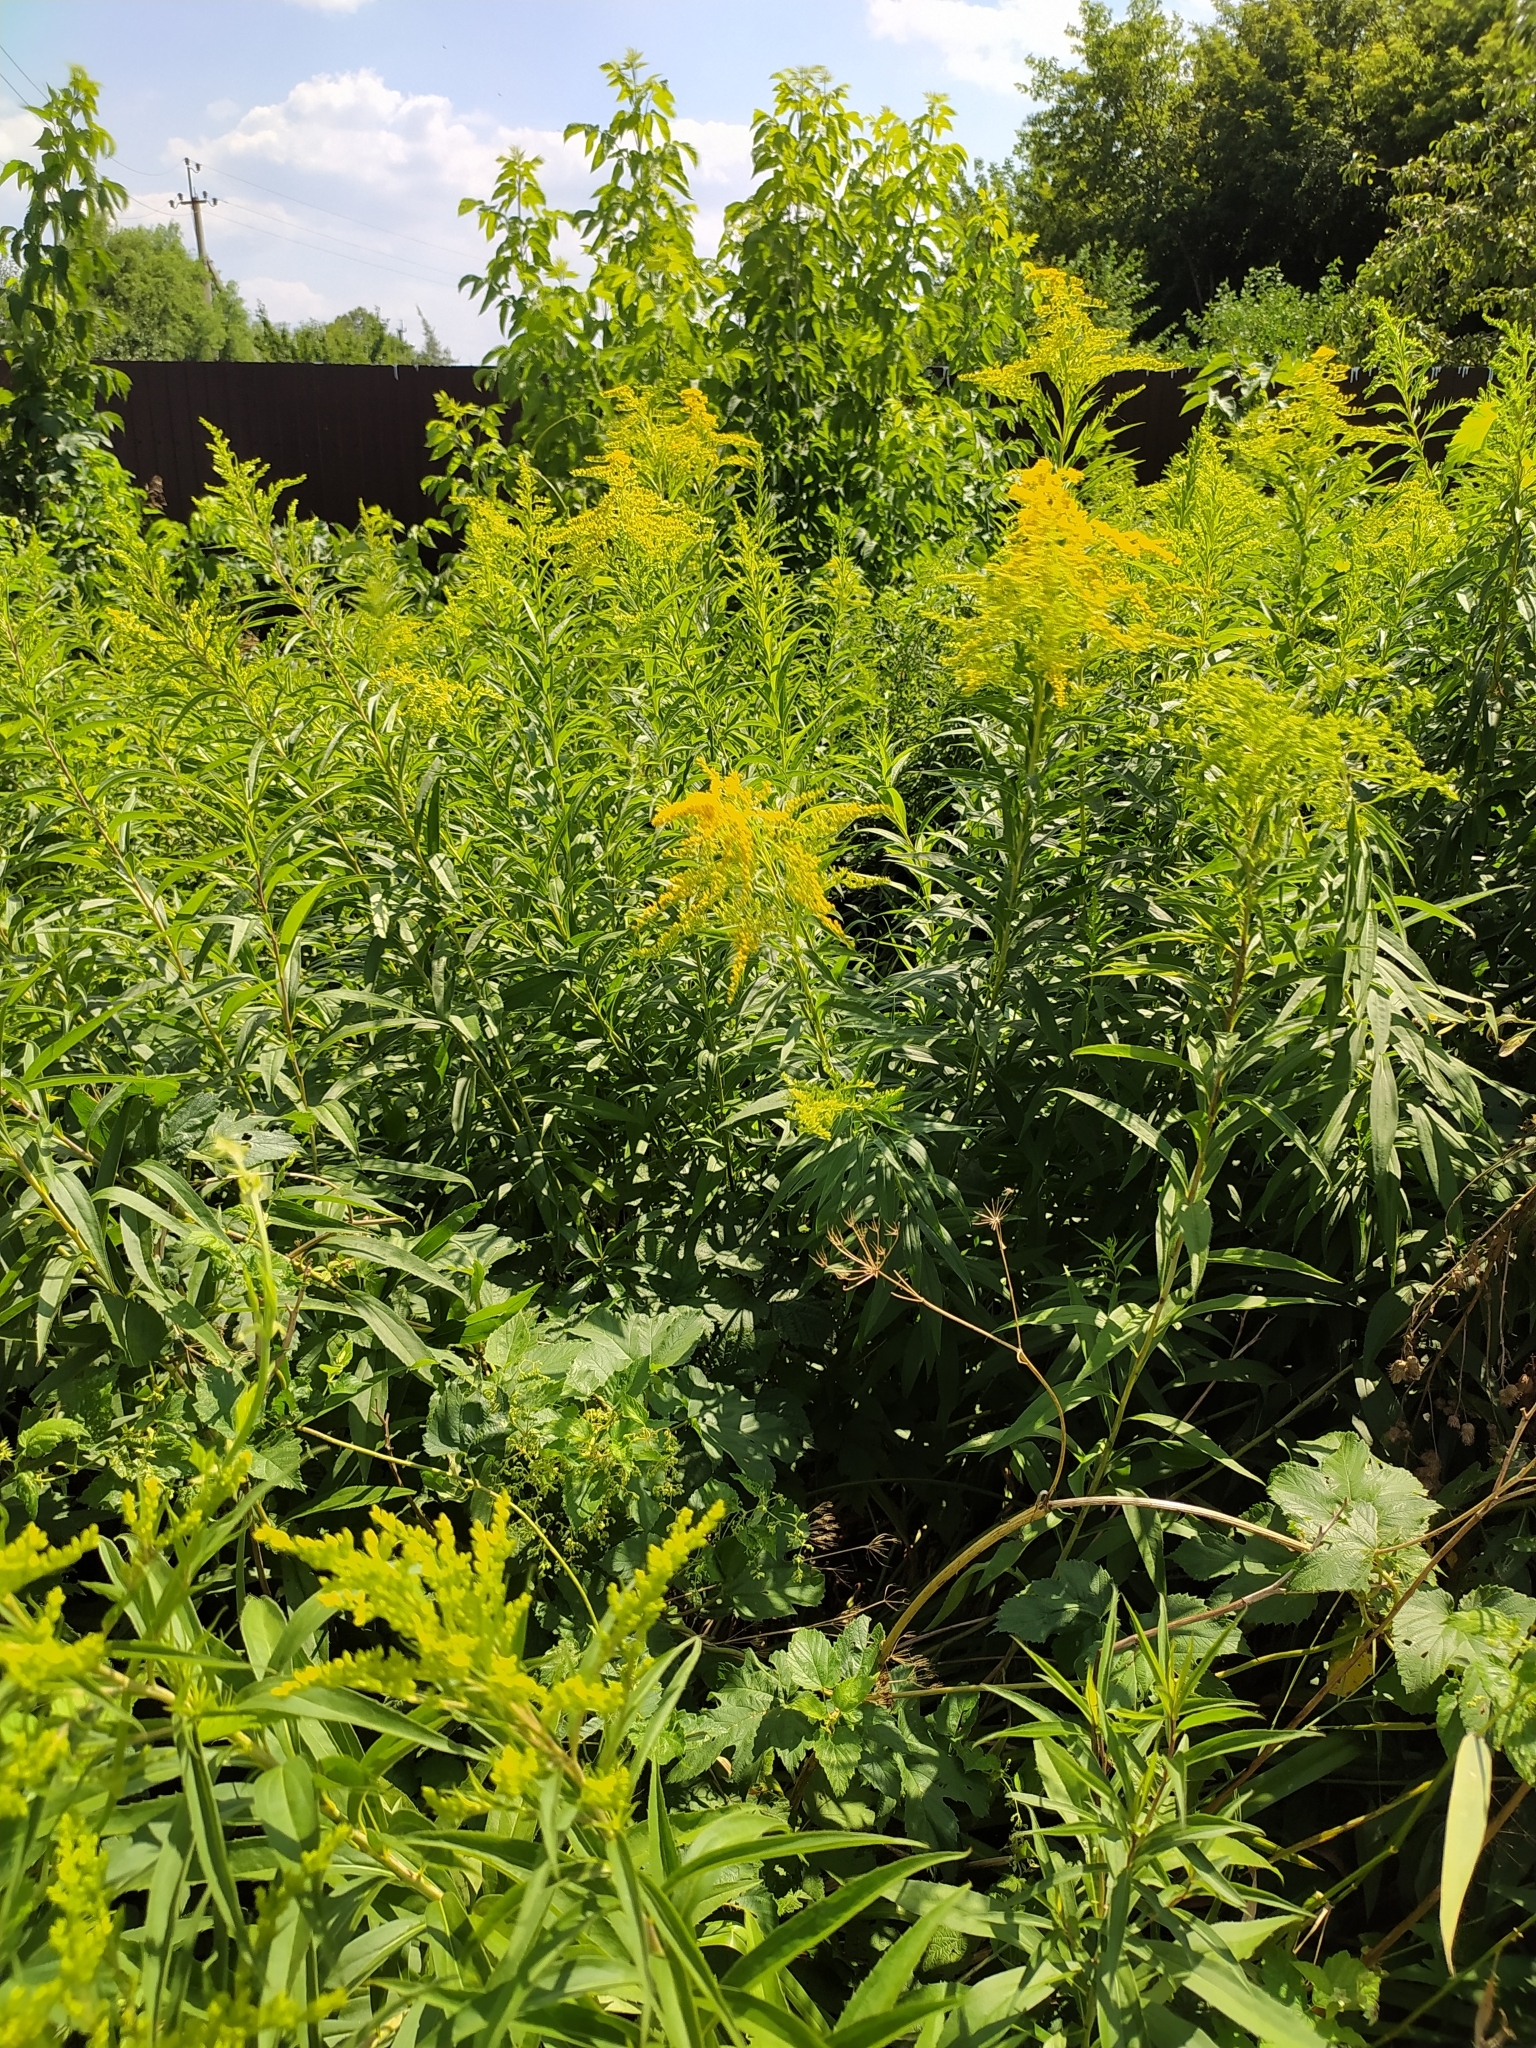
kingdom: Plantae
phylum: Tracheophyta
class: Magnoliopsida
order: Asterales
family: Asteraceae
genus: Solidago
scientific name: Solidago canadensis
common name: Canada goldenrod
